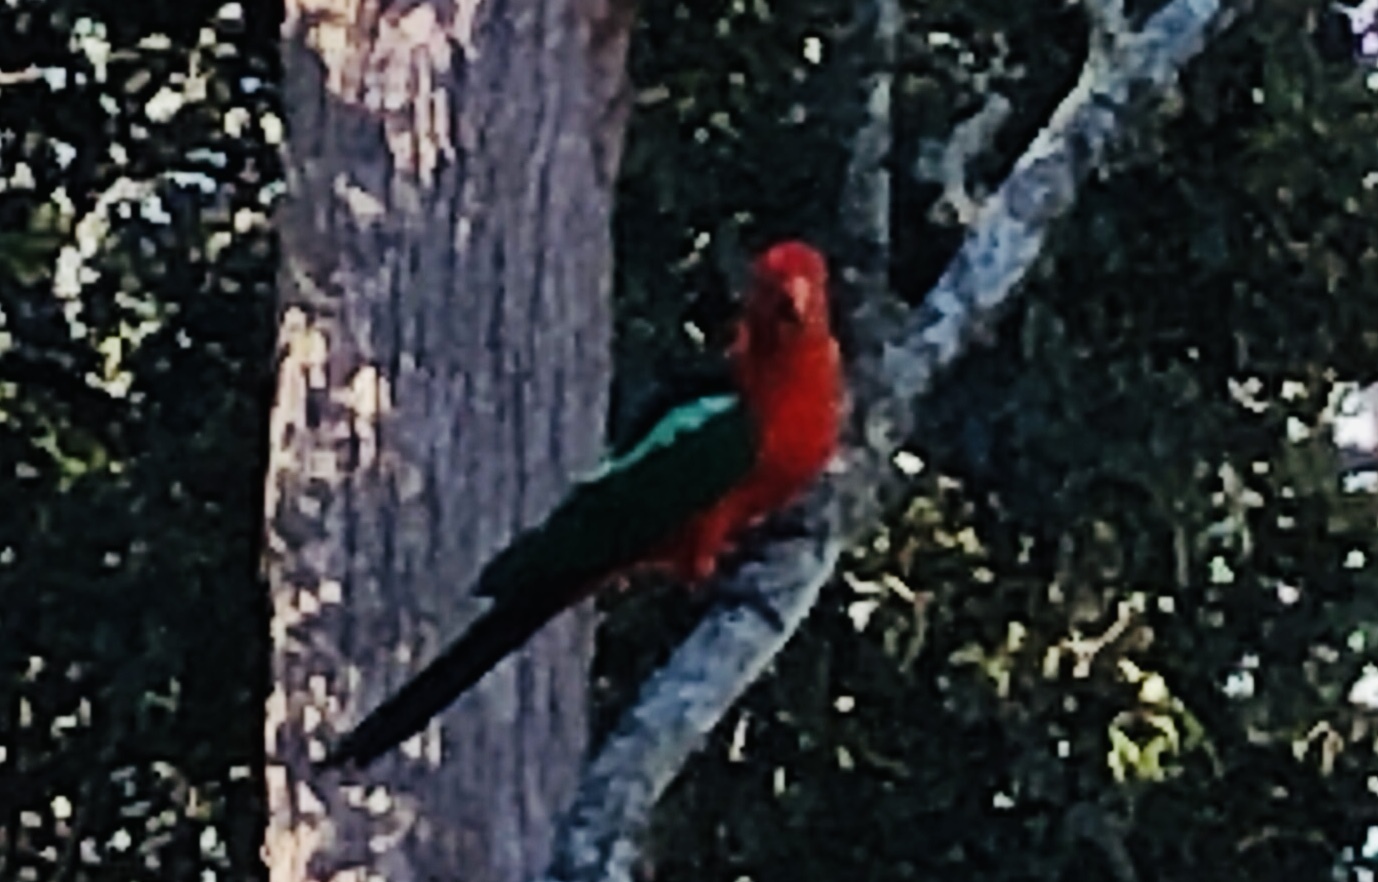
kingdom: Animalia
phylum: Chordata
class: Aves
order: Psittaciformes
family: Psittacidae
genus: Alisterus
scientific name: Alisterus scapularis
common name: Australian king parrot
